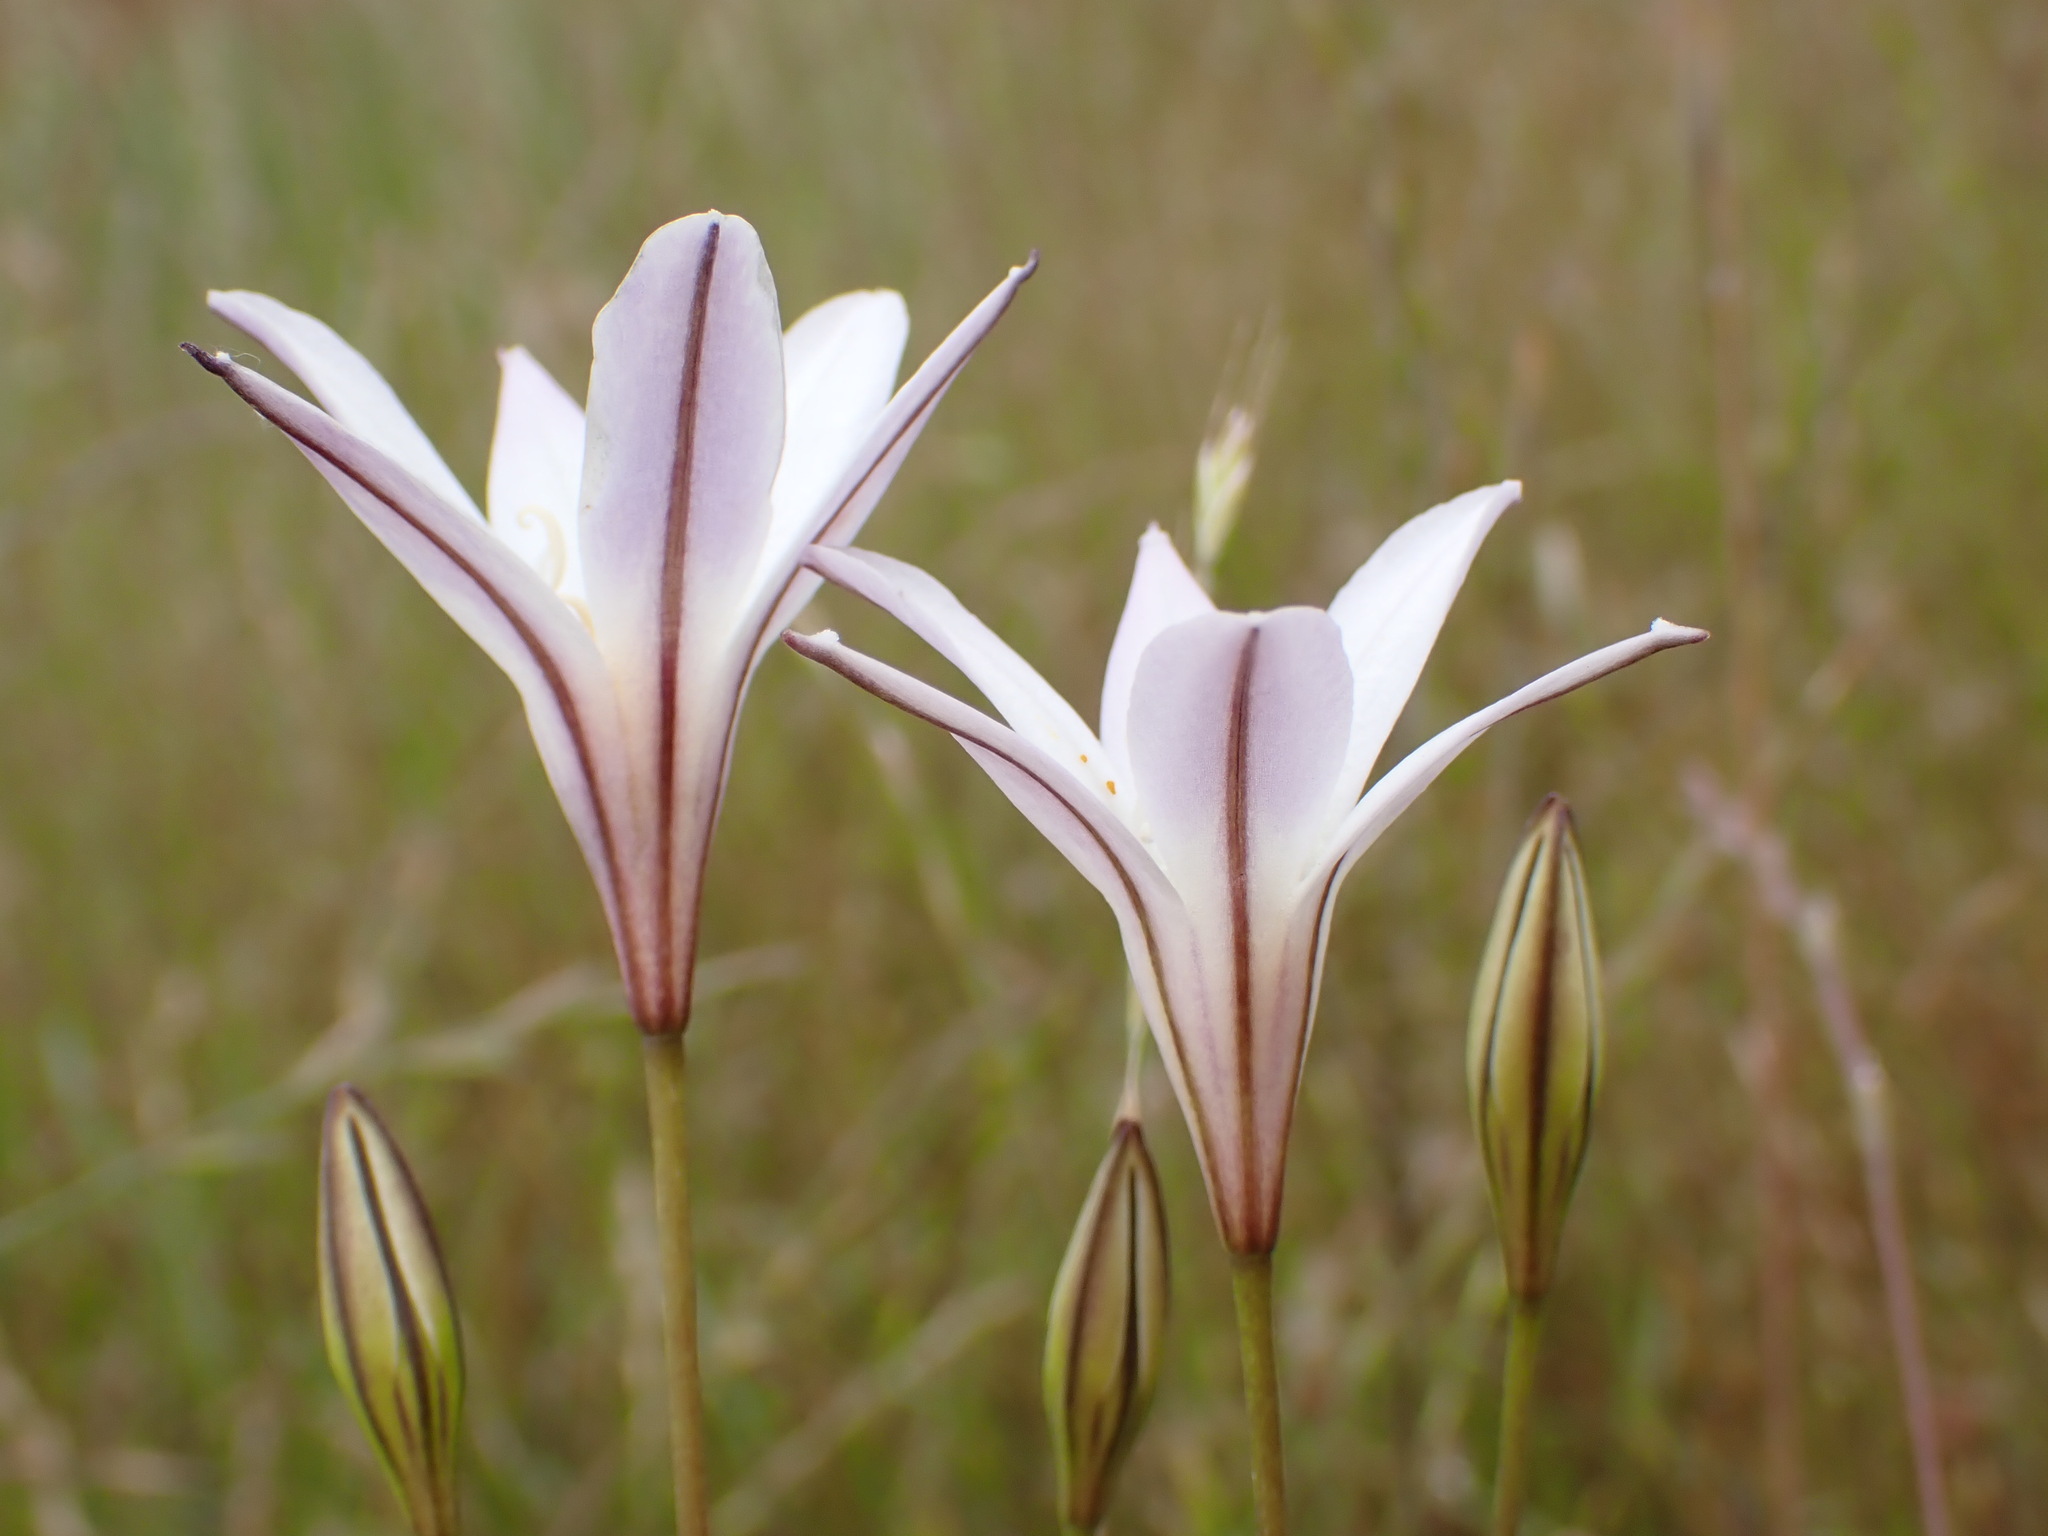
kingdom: Plantae
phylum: Tracheophyta
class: Liliopsida
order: Asparagales
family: Asparagaceae
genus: Triteleia
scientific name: Triteleia peduncularis
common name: Long-ray brodiaea
